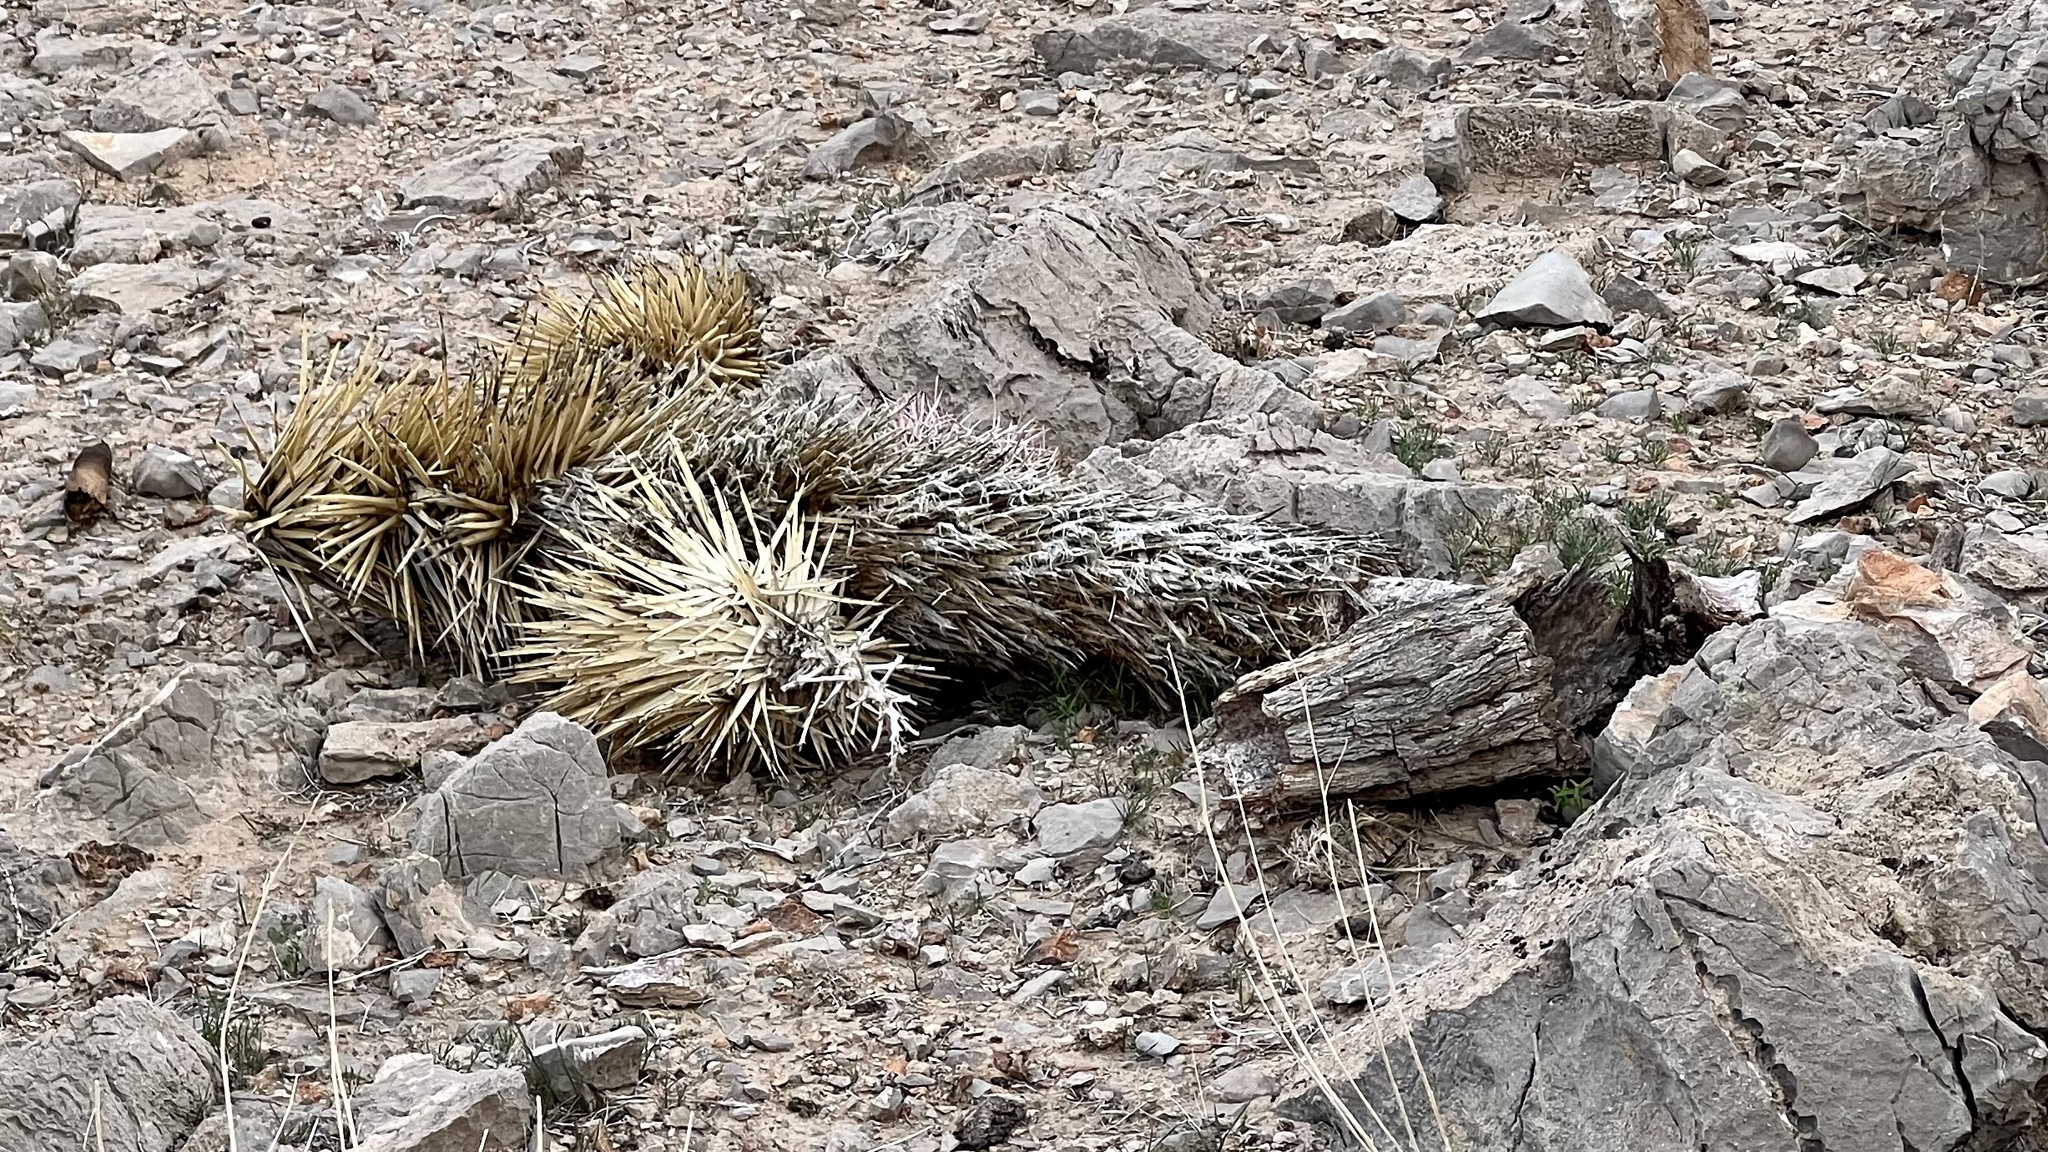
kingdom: Plantae
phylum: Tracheophyta
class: Liliopsida
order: Asparagales
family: Asparagaceae
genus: Yucca
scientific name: Yucca brevifolia
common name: Joshua tree
